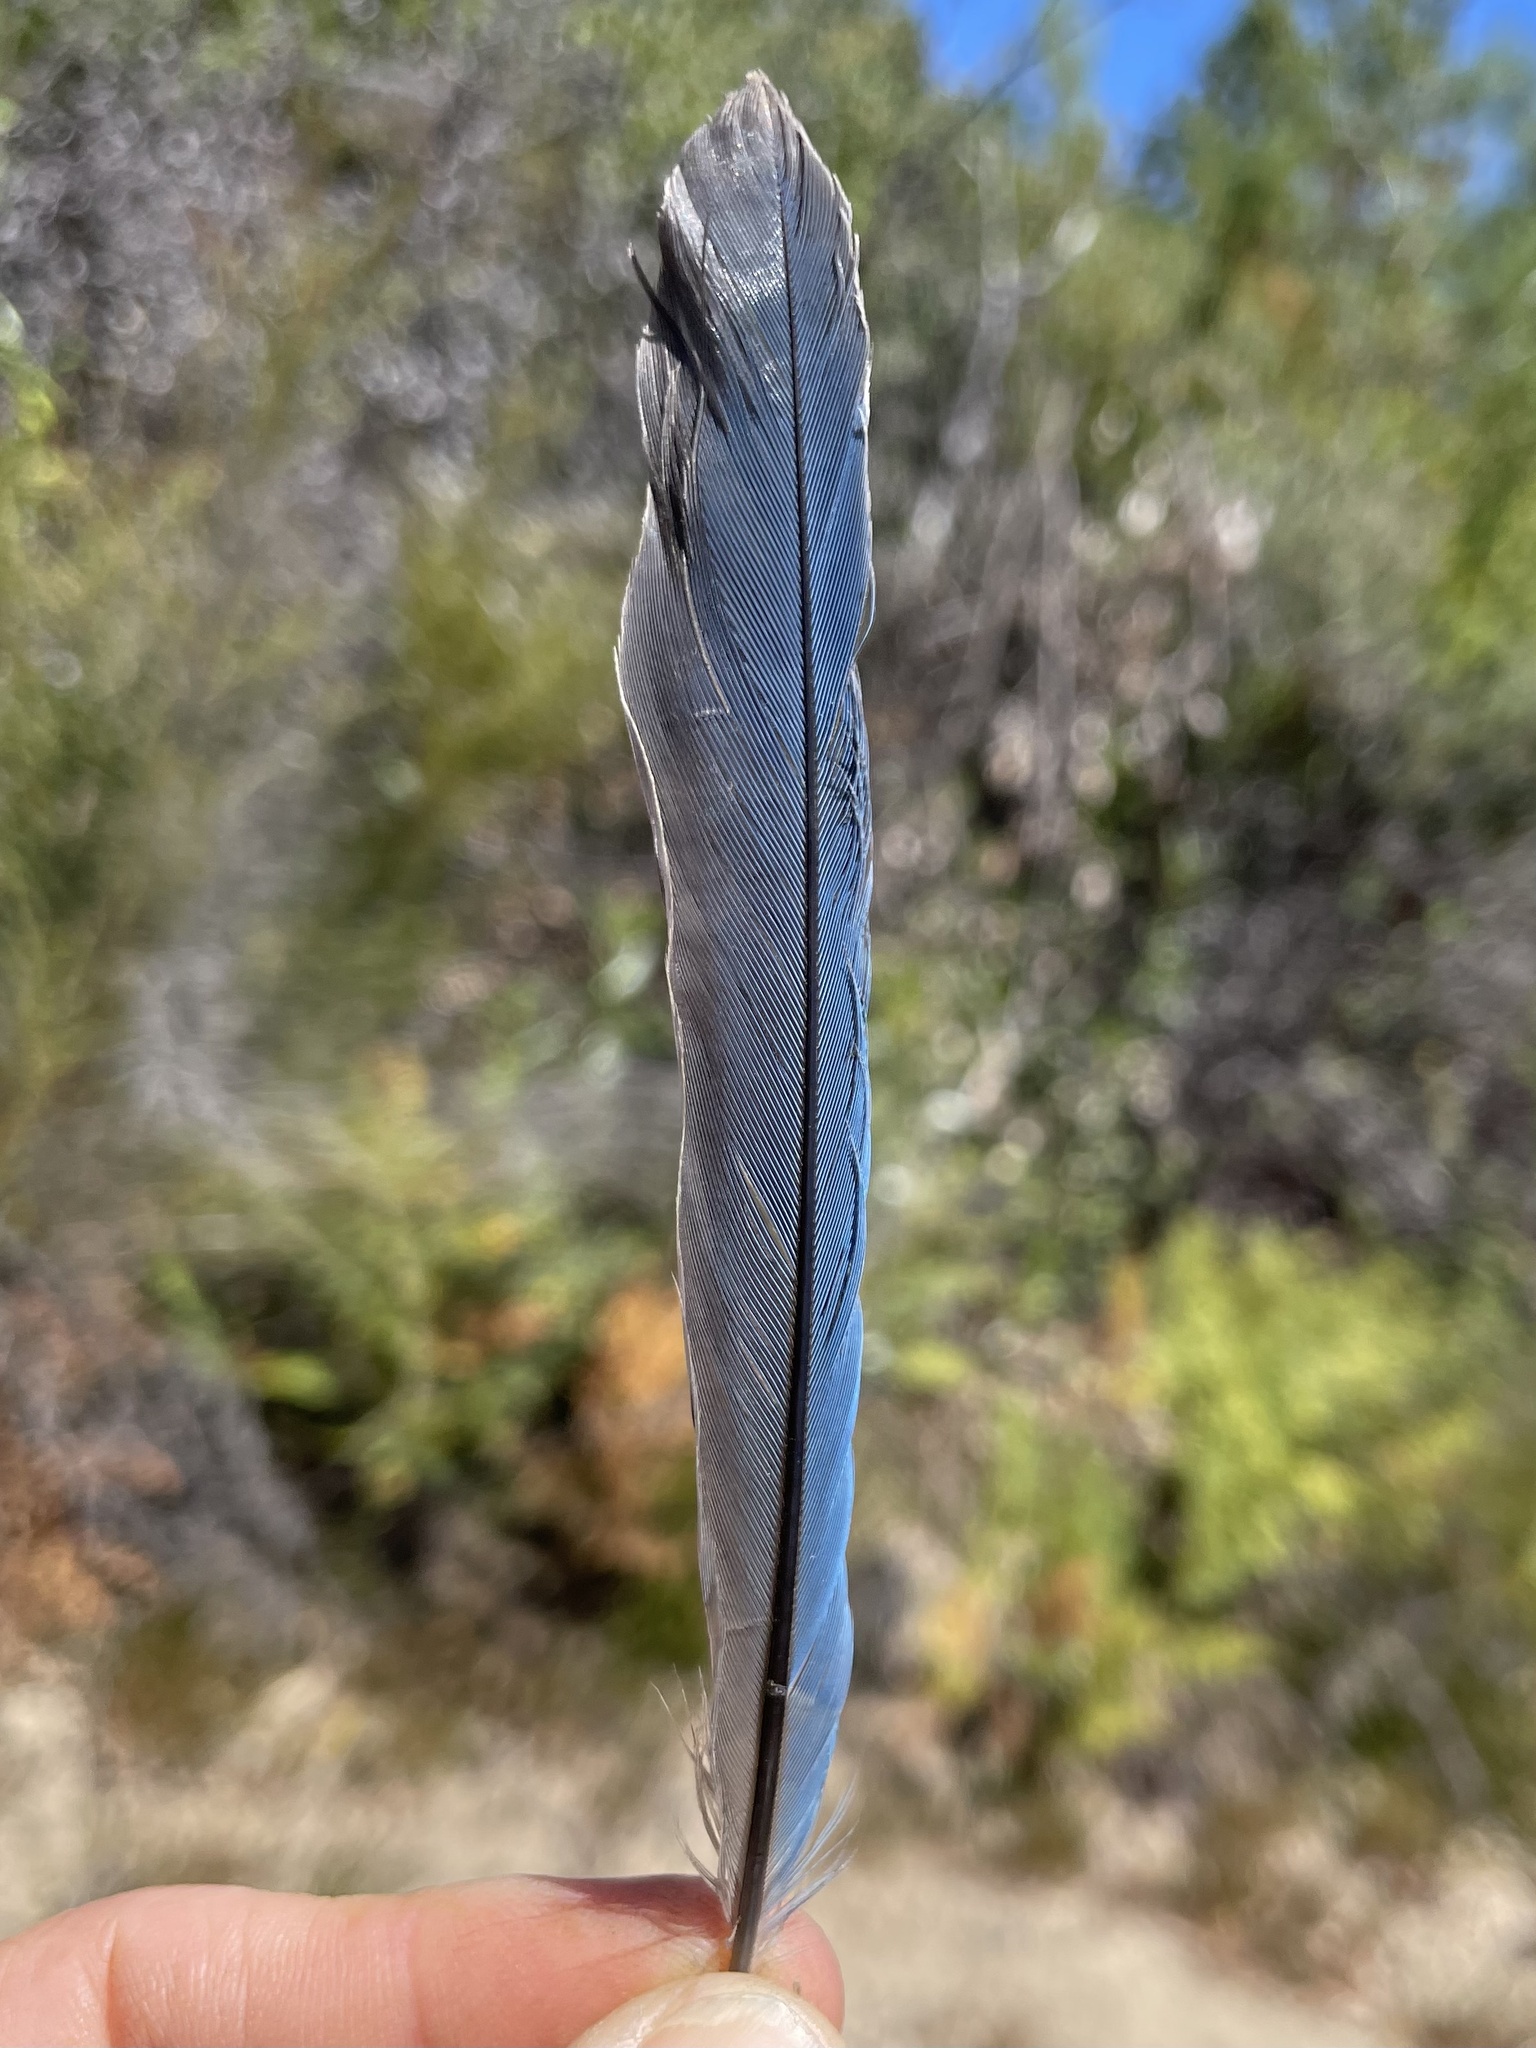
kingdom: Animalia
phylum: Chordata
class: Aves
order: Passeriformes
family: Corvidae
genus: Aphelocoma
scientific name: Aphelocoma californica
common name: California scrub-jay
